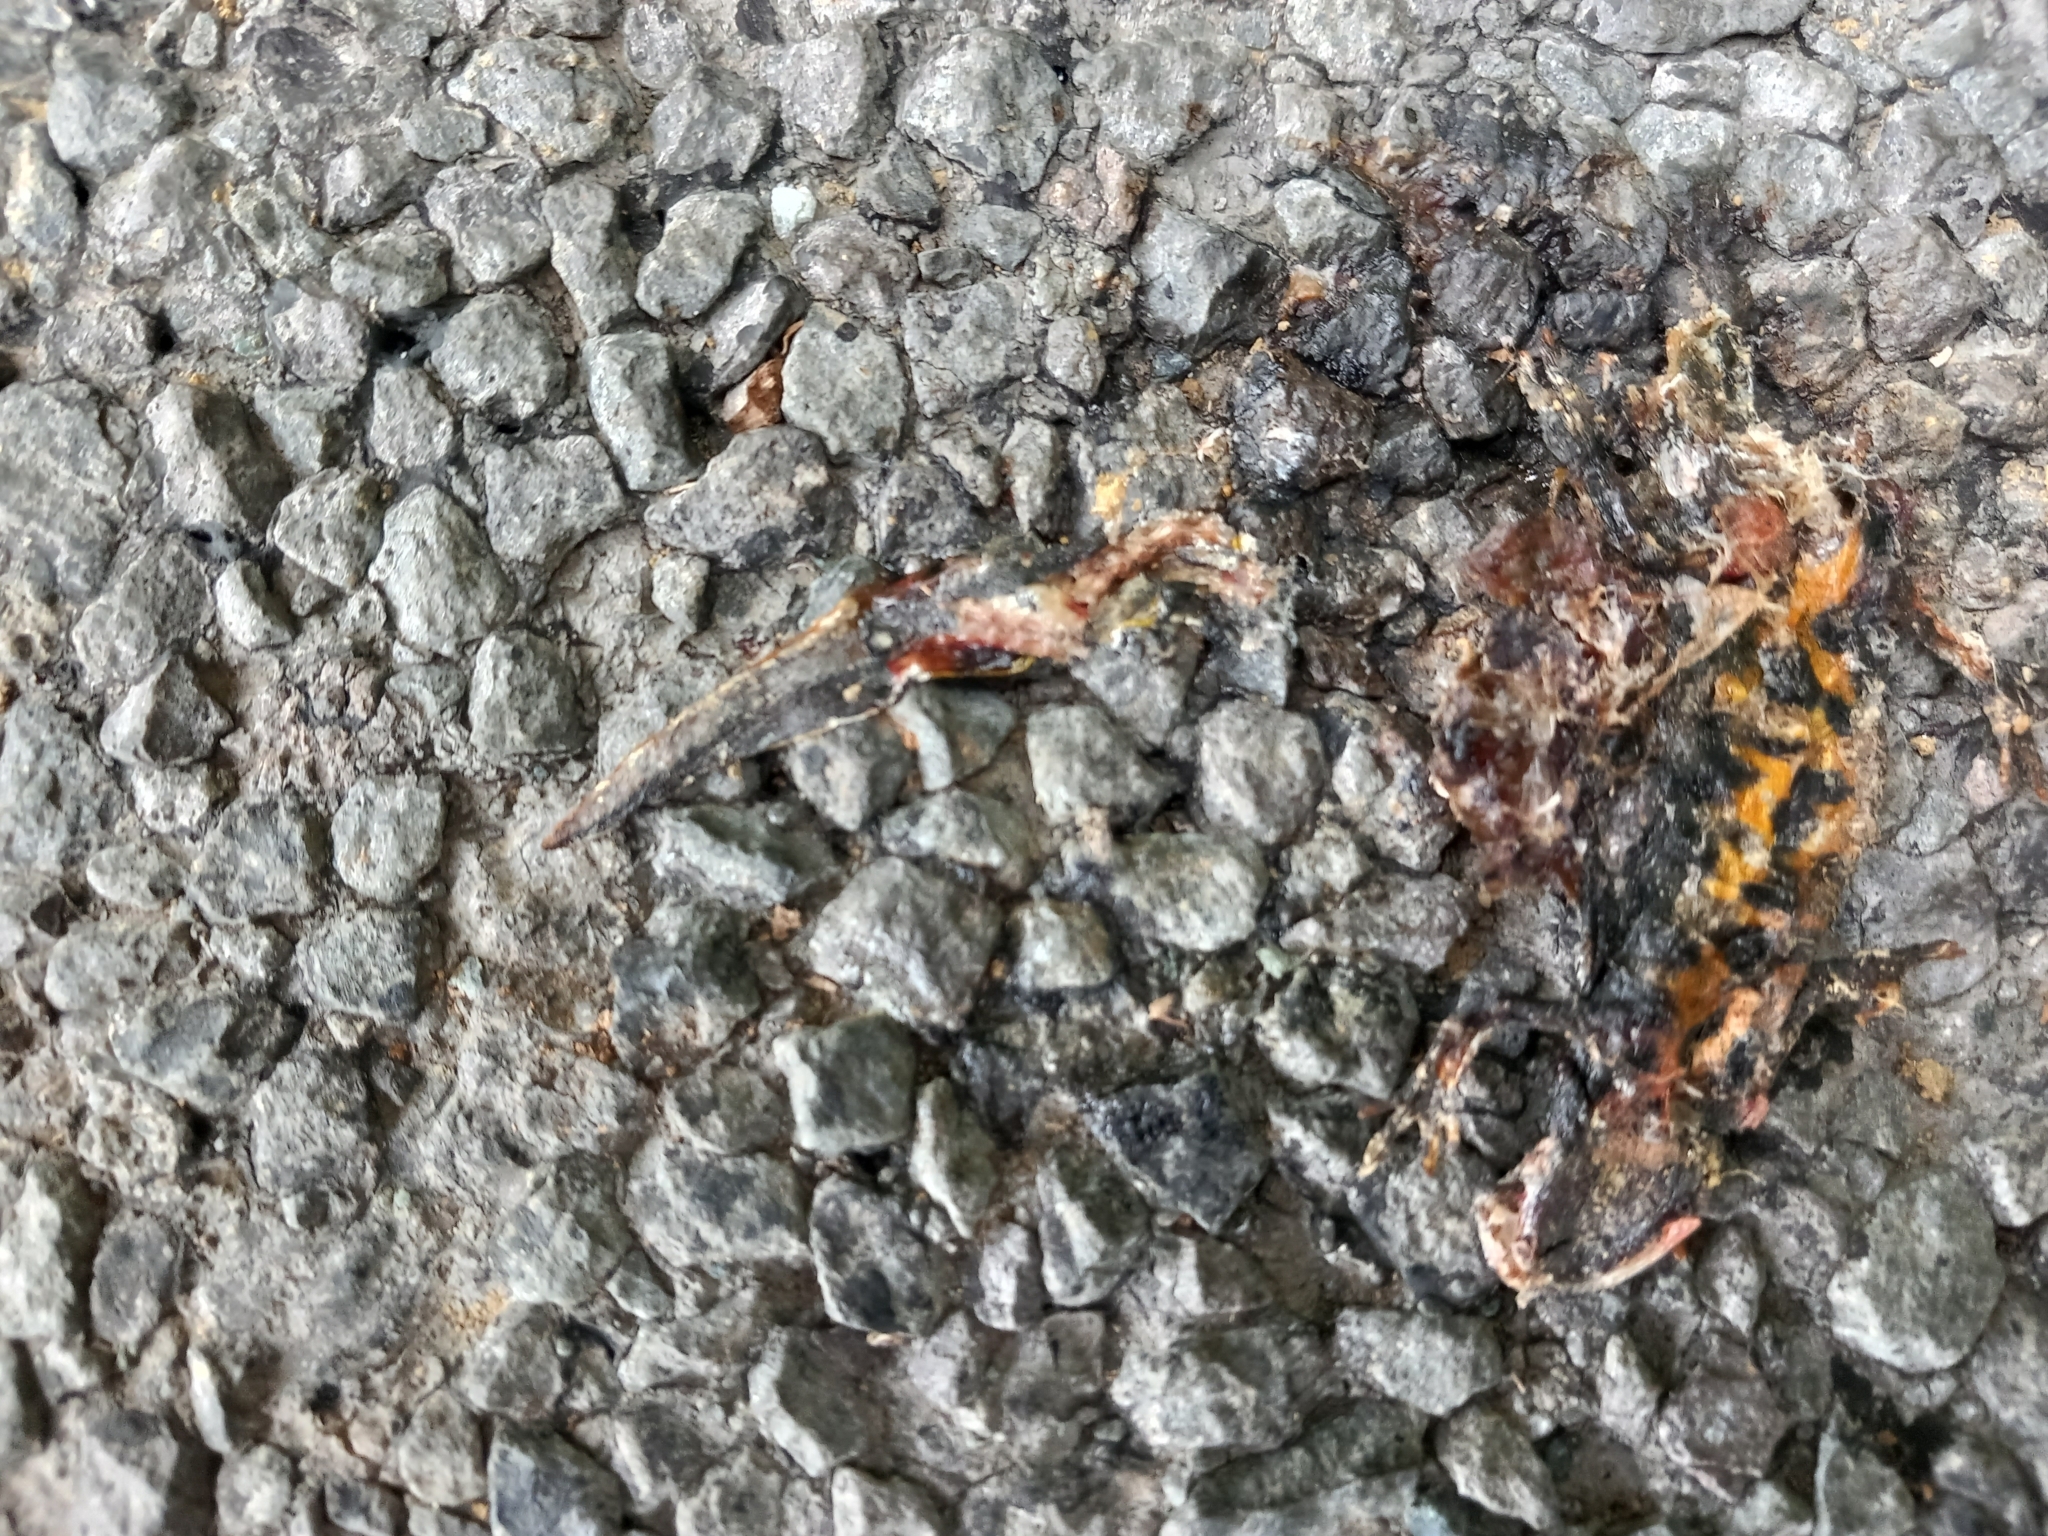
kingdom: Animalia
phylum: Chordata
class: Amphibia
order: Caudata
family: Salamandridae
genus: Triturus
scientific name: Triturus carnifex
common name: Italian crested newt
